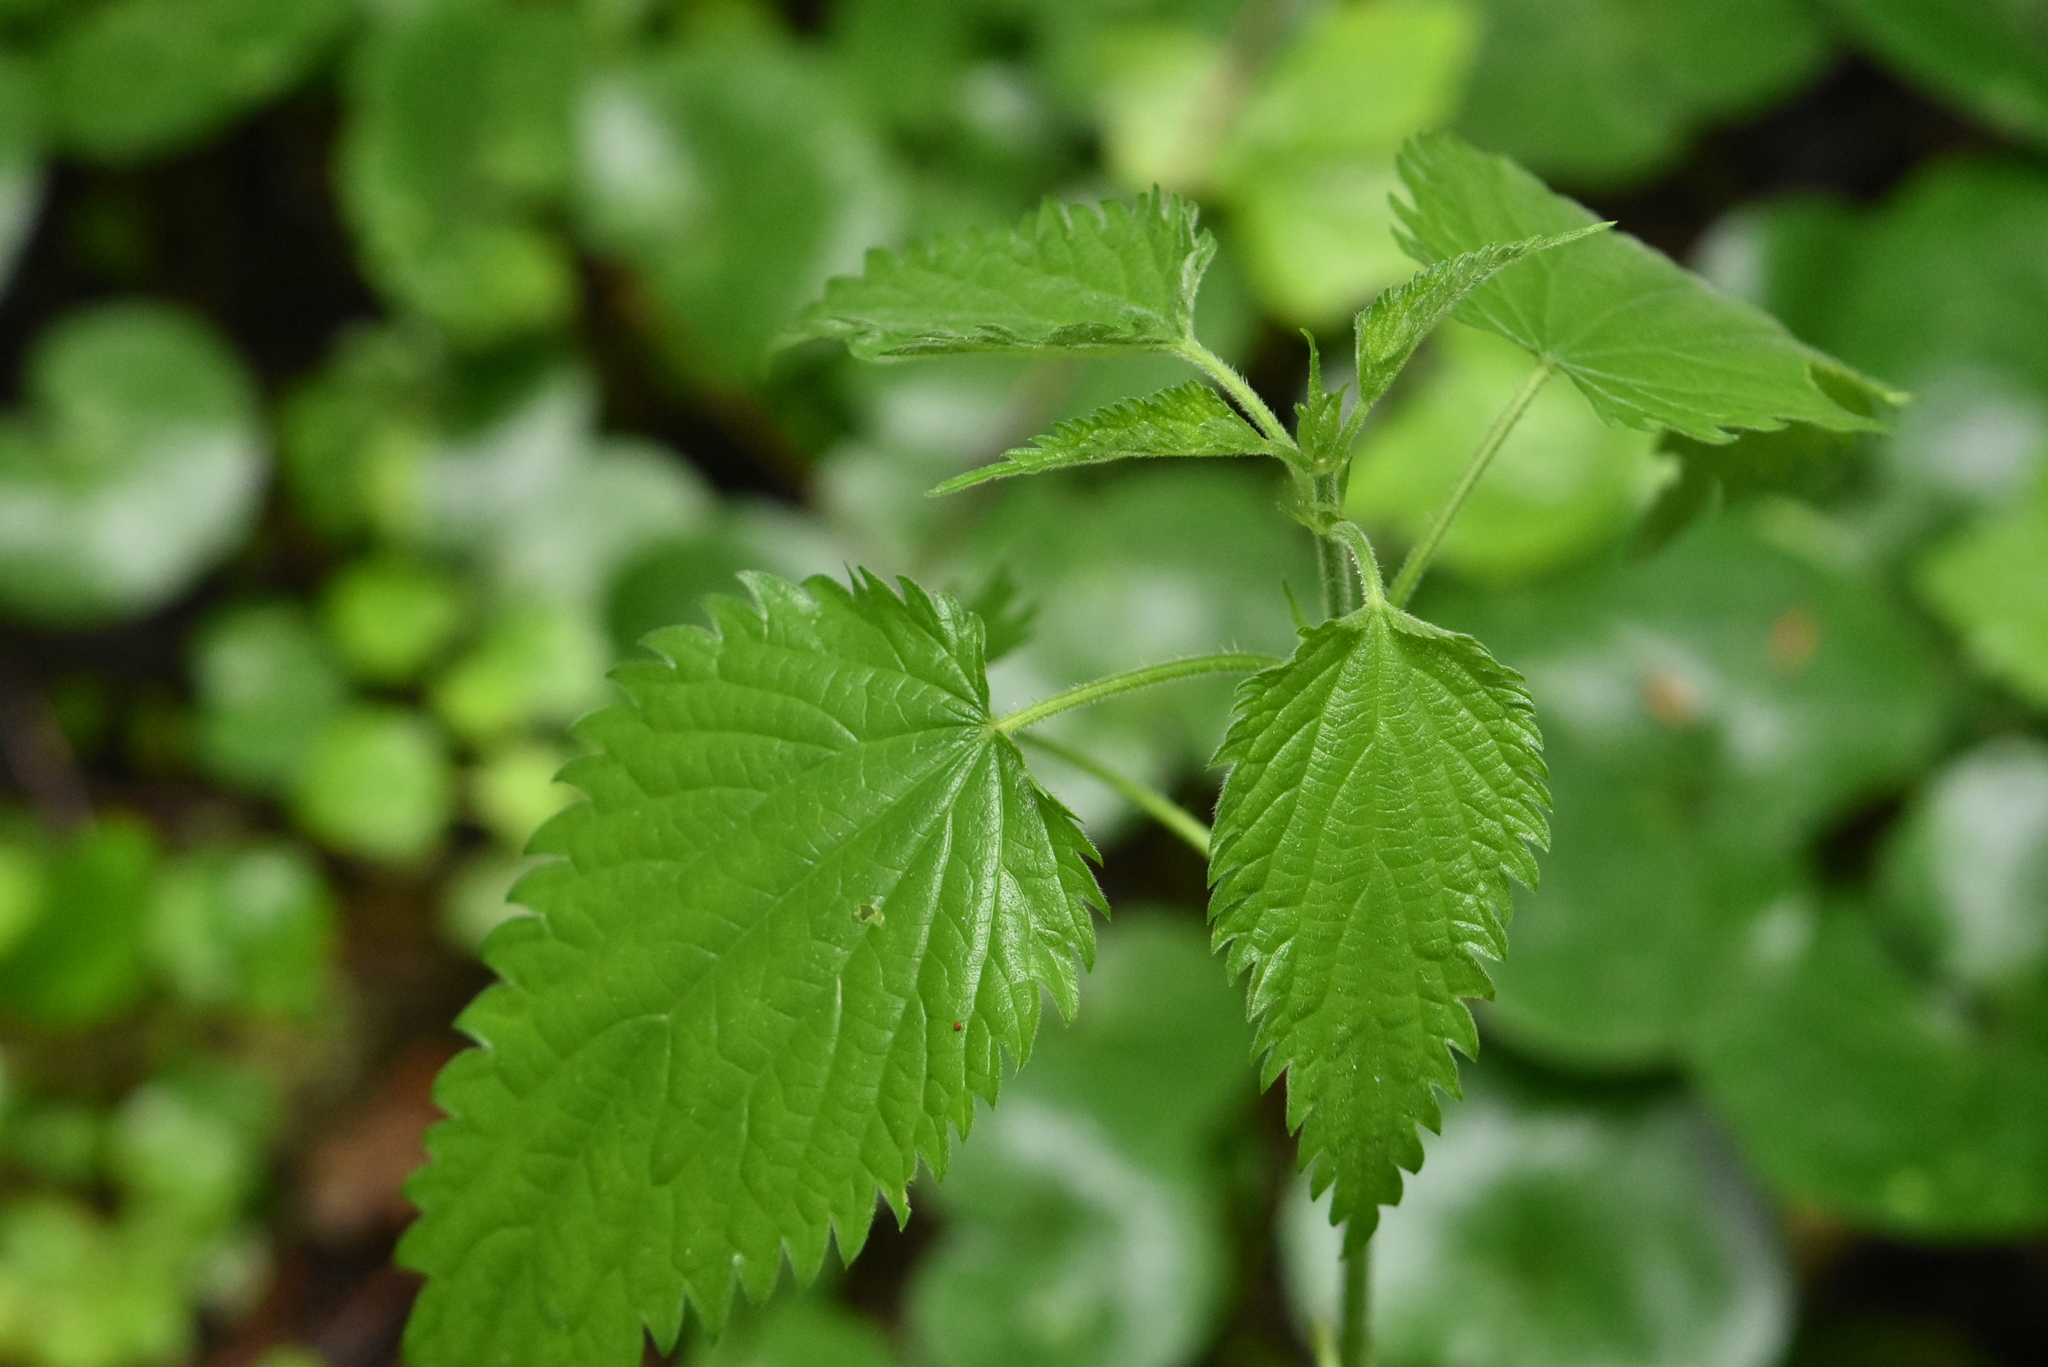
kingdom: Plantae
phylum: Tracheophyta
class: Magnoliopsida
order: Rosales
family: Urticaceae
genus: Urtica
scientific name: Urtica dioica
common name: Common nettle
